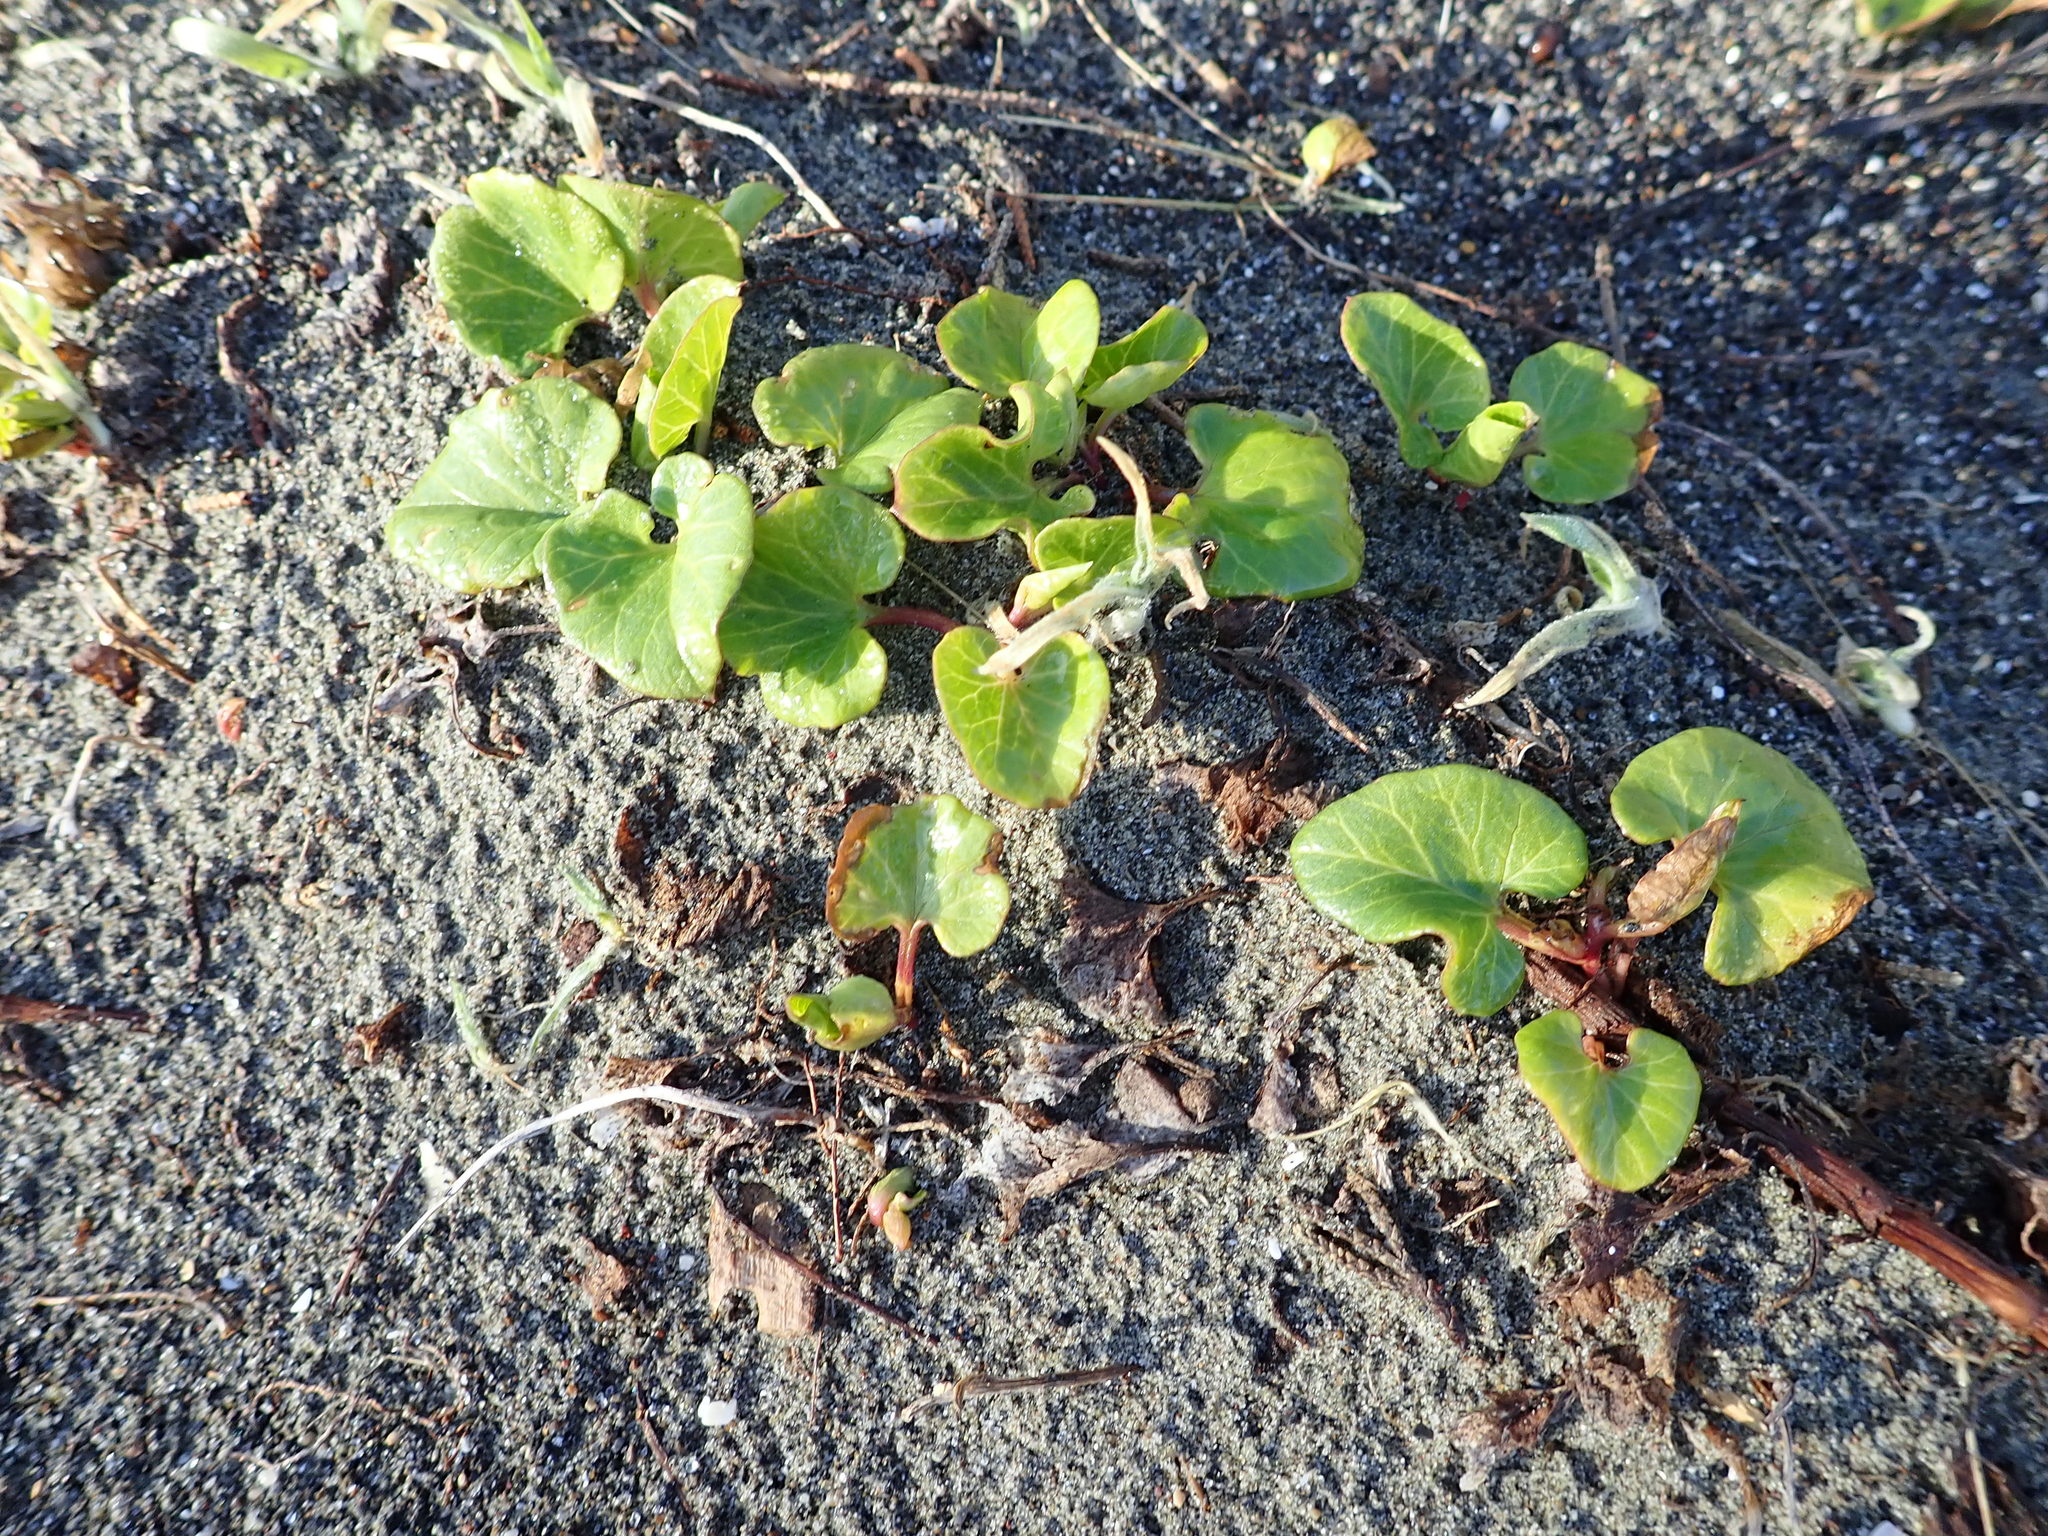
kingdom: Plantae
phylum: Tracheophyta
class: Magnoliopsida
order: Solanales
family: Convolvulaceae
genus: Calystegia
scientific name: Calystegia soldanella
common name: Sea bindweed
